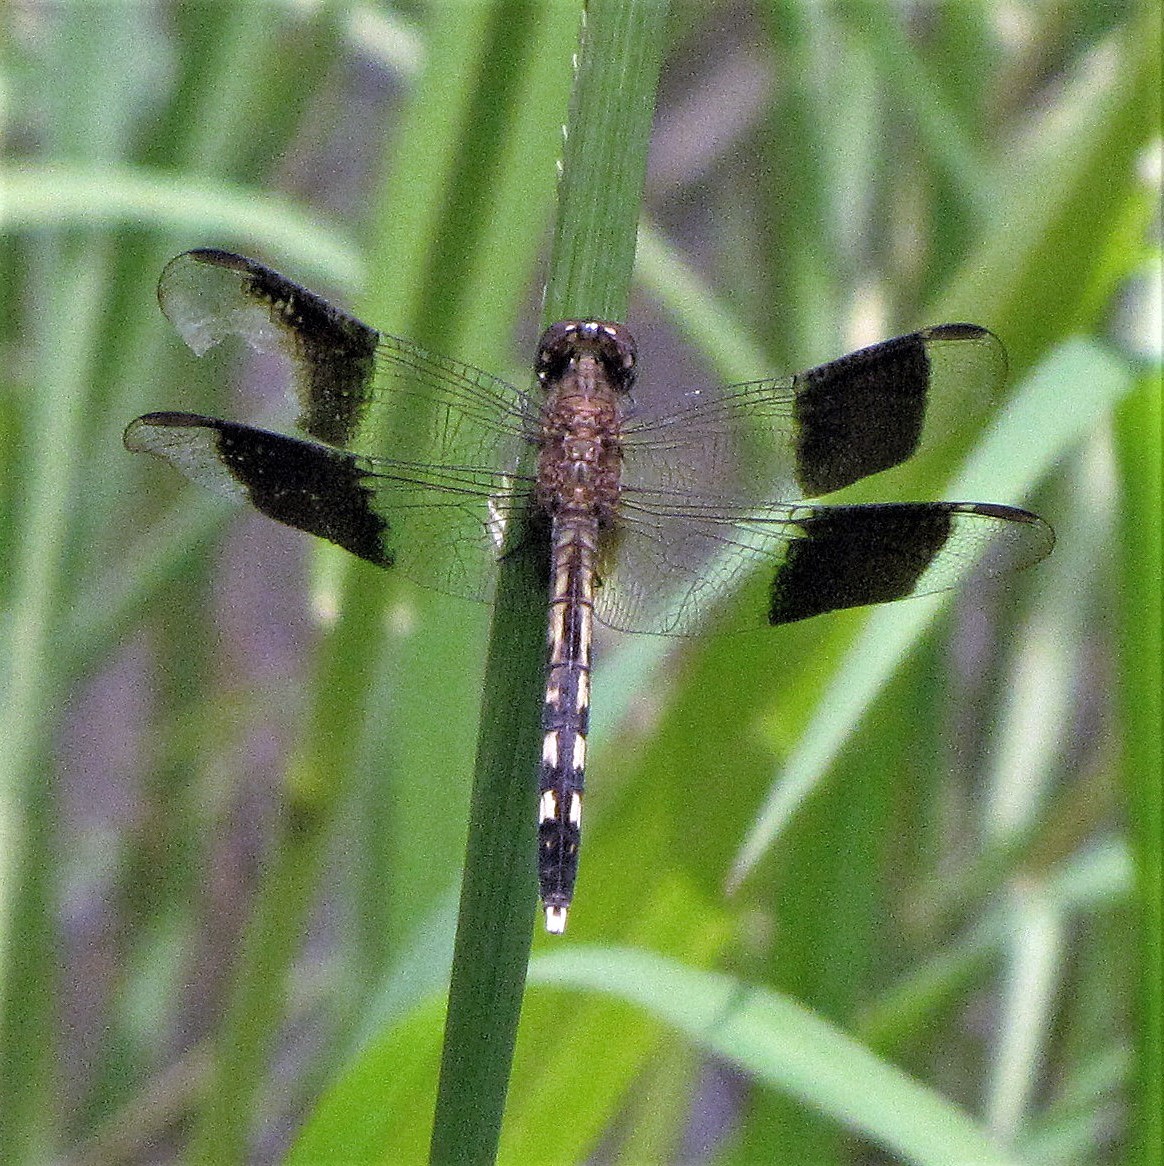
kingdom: Animalia
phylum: Arthropoda
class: Insecta
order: Odonata
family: Libellulidae
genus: Erythrodiplax
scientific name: Erythrodiplax umbrata
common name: Band-winged dragonlet
